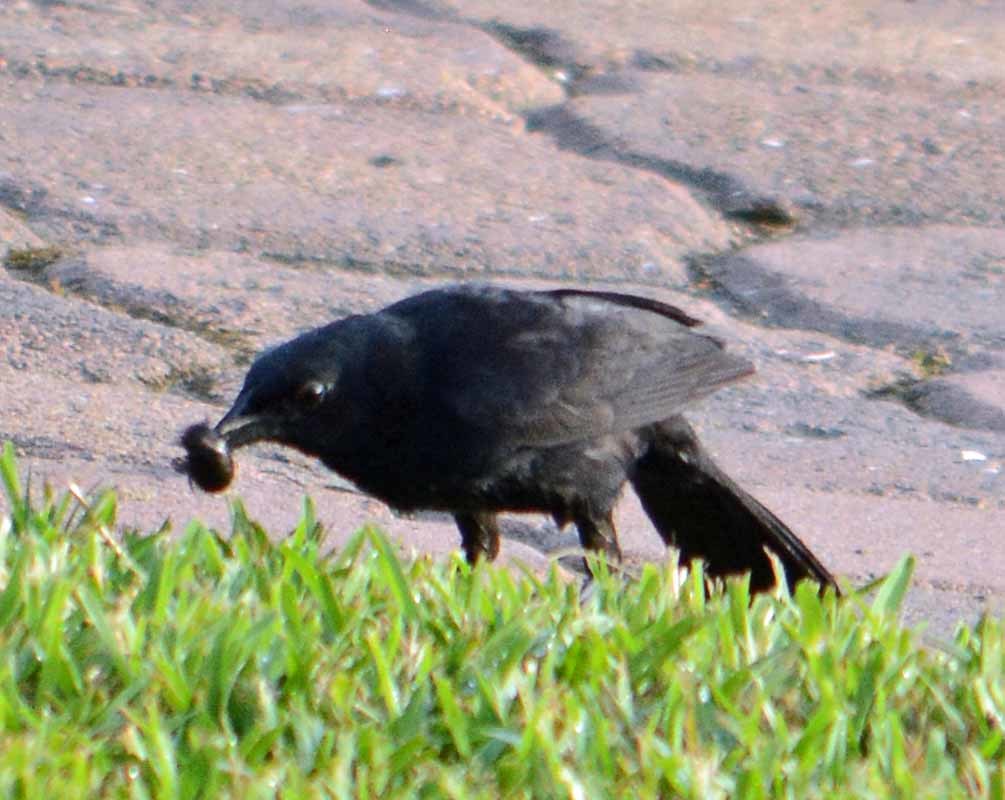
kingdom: Animalia
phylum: Chordata
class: Aves
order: Passeriformes
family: Icteridae
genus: Dives
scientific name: Dives dives
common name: Melodious blackbird
